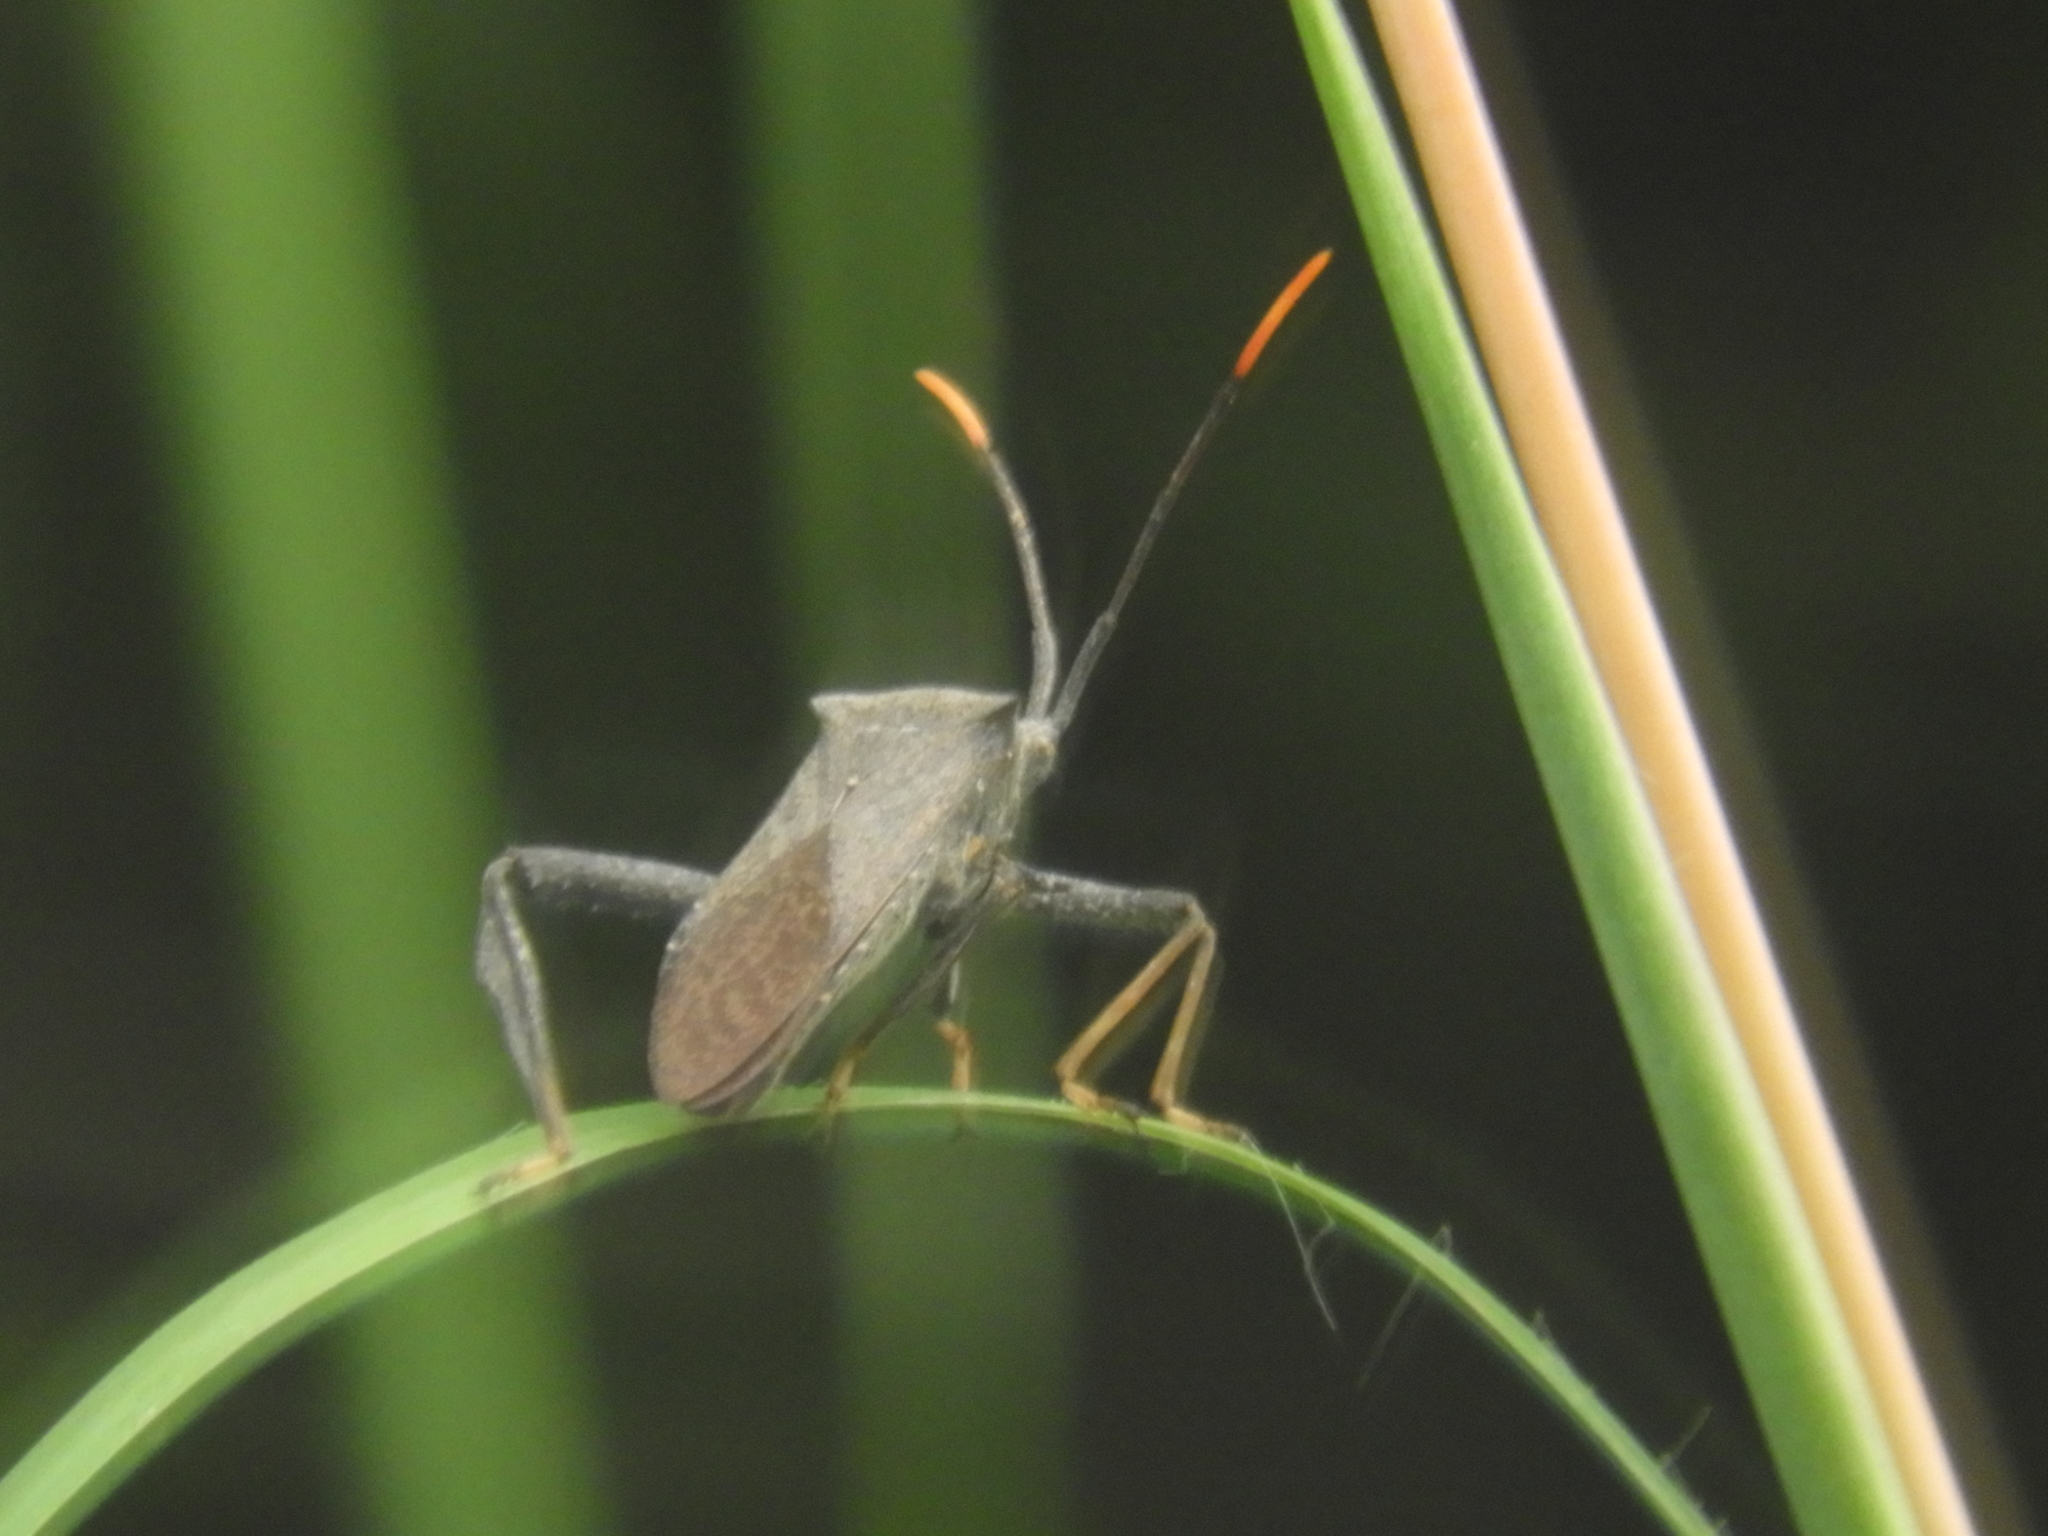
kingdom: Animalia
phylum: Arthropoda
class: Insecta
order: Hemiptera
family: Coreidae
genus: Acanthocephala
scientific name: Acanthocephala terminalis
